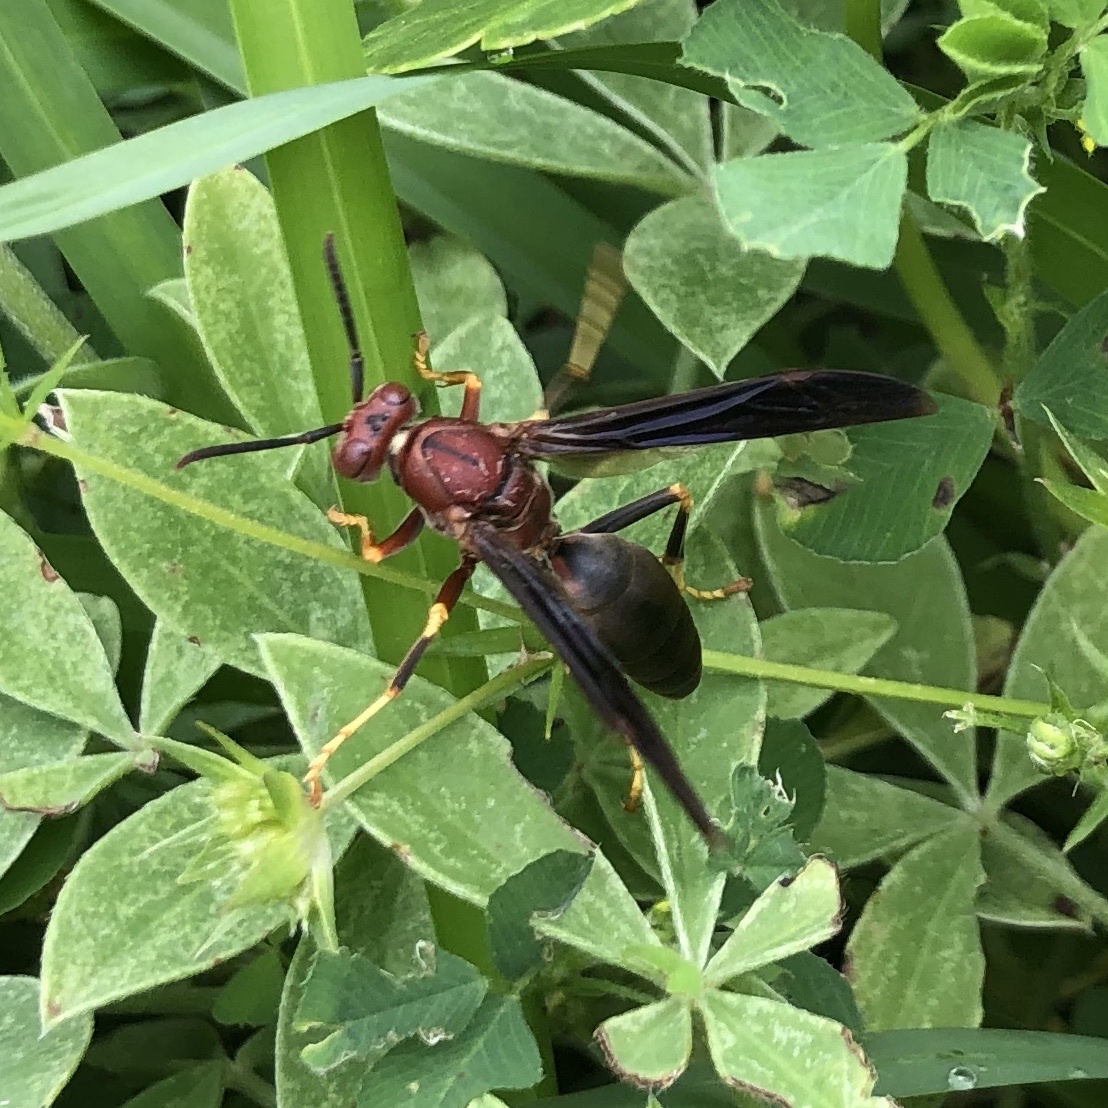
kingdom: Animalia
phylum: Arthropoda
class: Insecta
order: Hymenoptera
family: Eumenidae
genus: Polistes
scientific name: Polistes metricus
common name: Metric paper wasp
